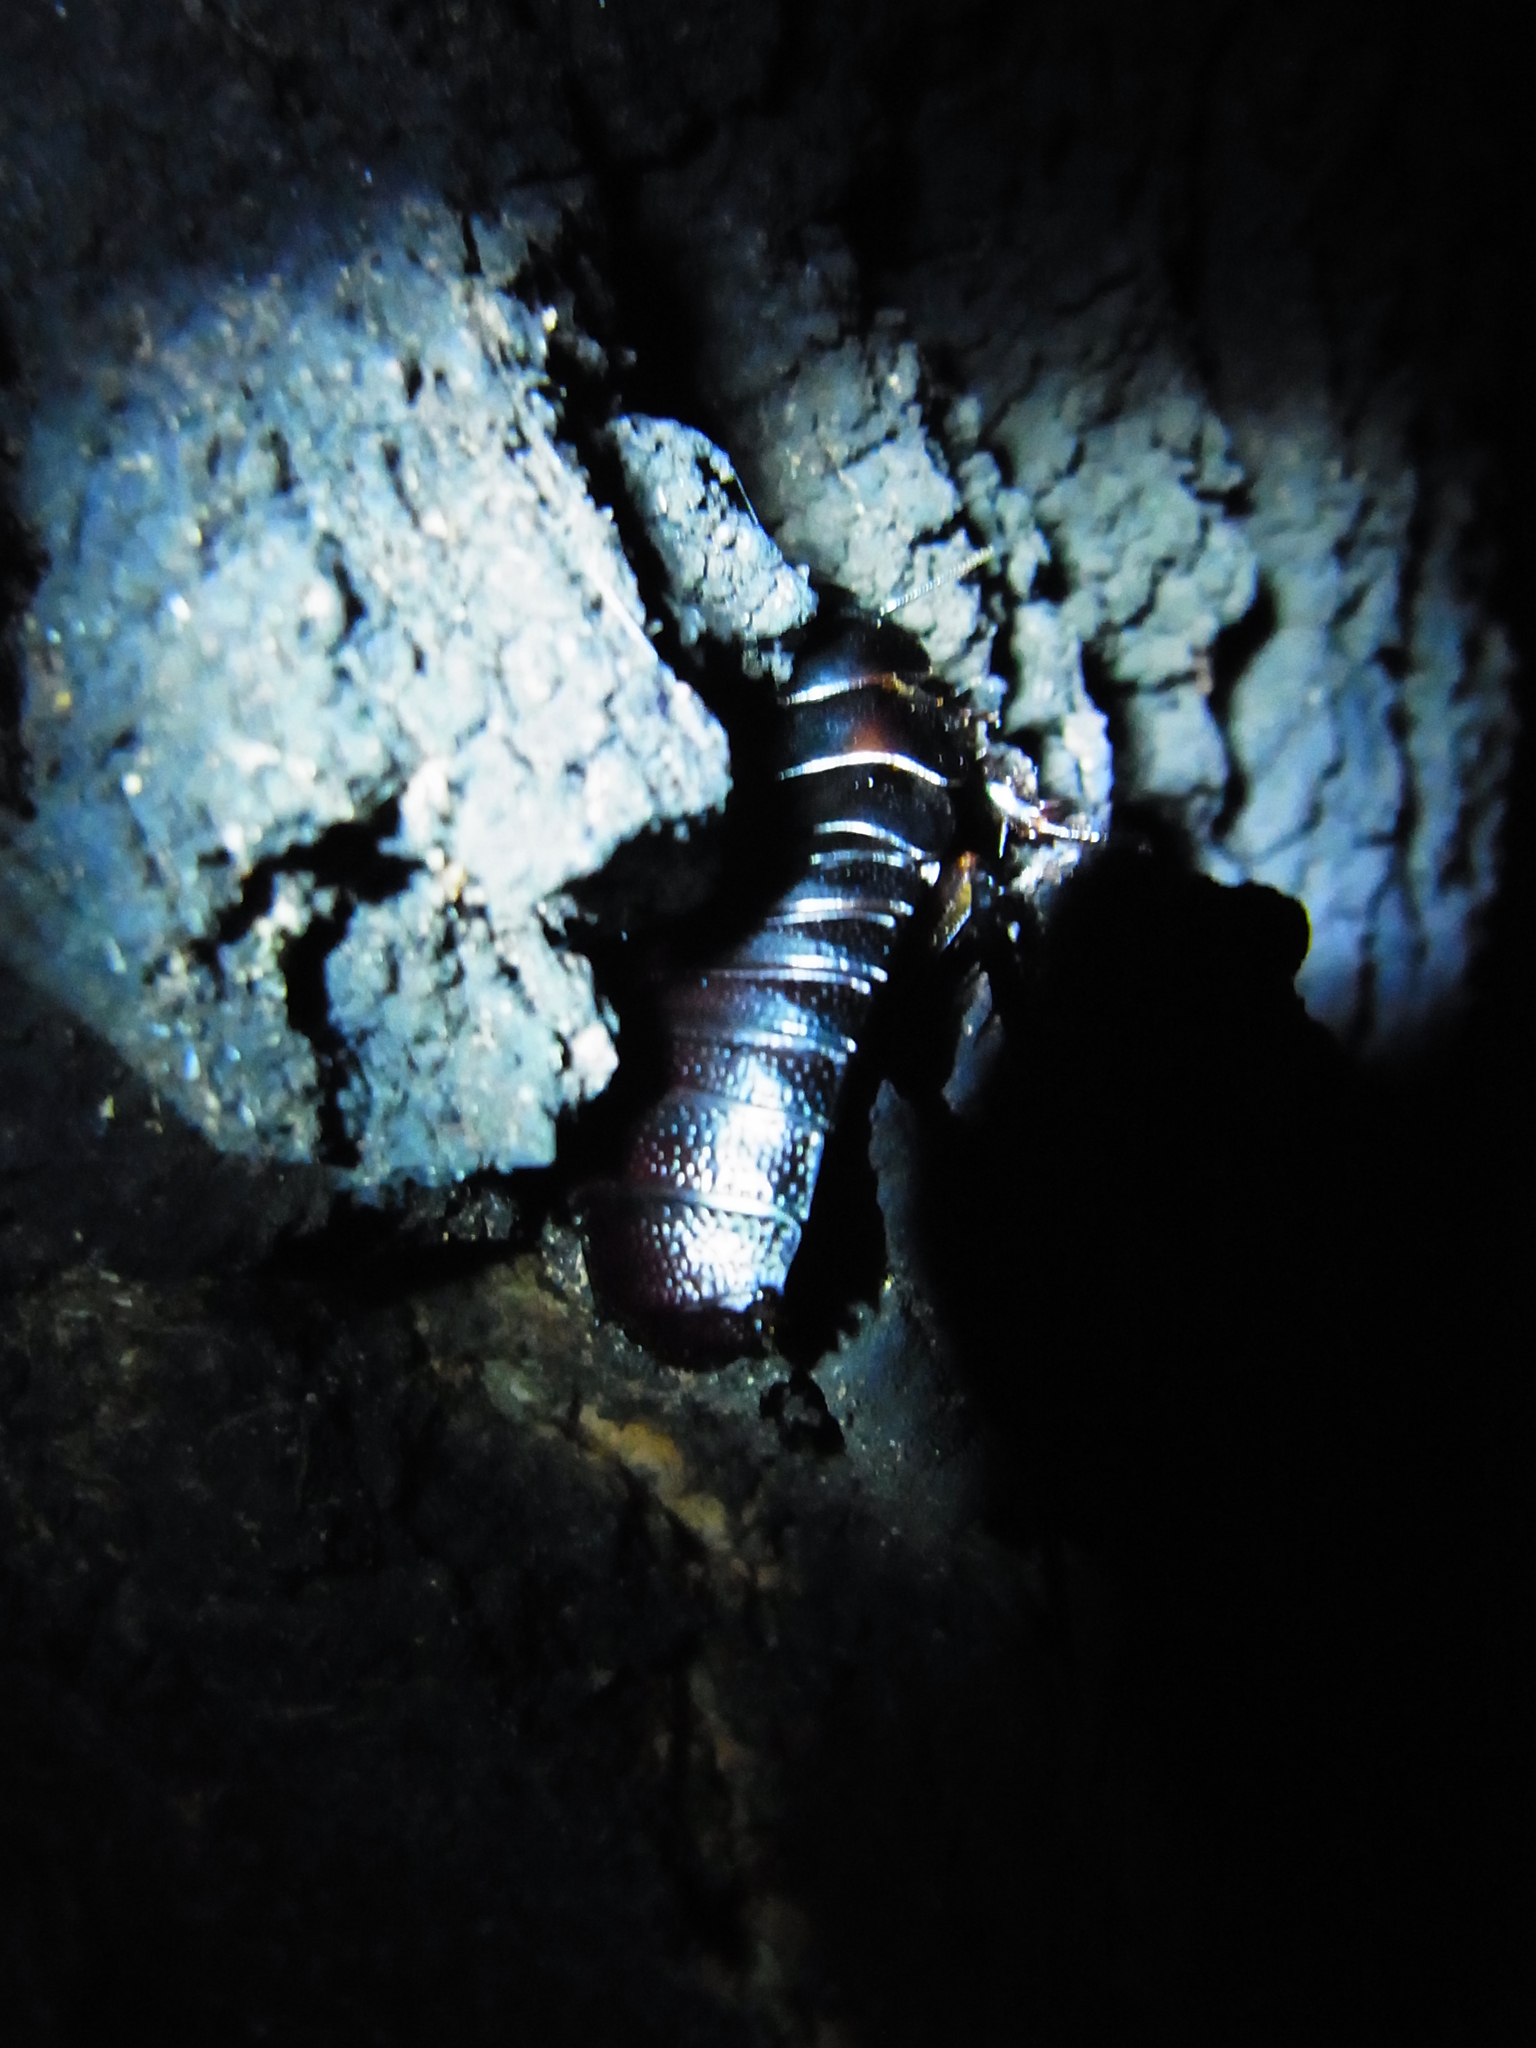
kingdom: Animalia
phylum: Arthropoda
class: Insecta
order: Blattodea
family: Blaberidae
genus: Panesthia
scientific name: Panesthia angustipennis
